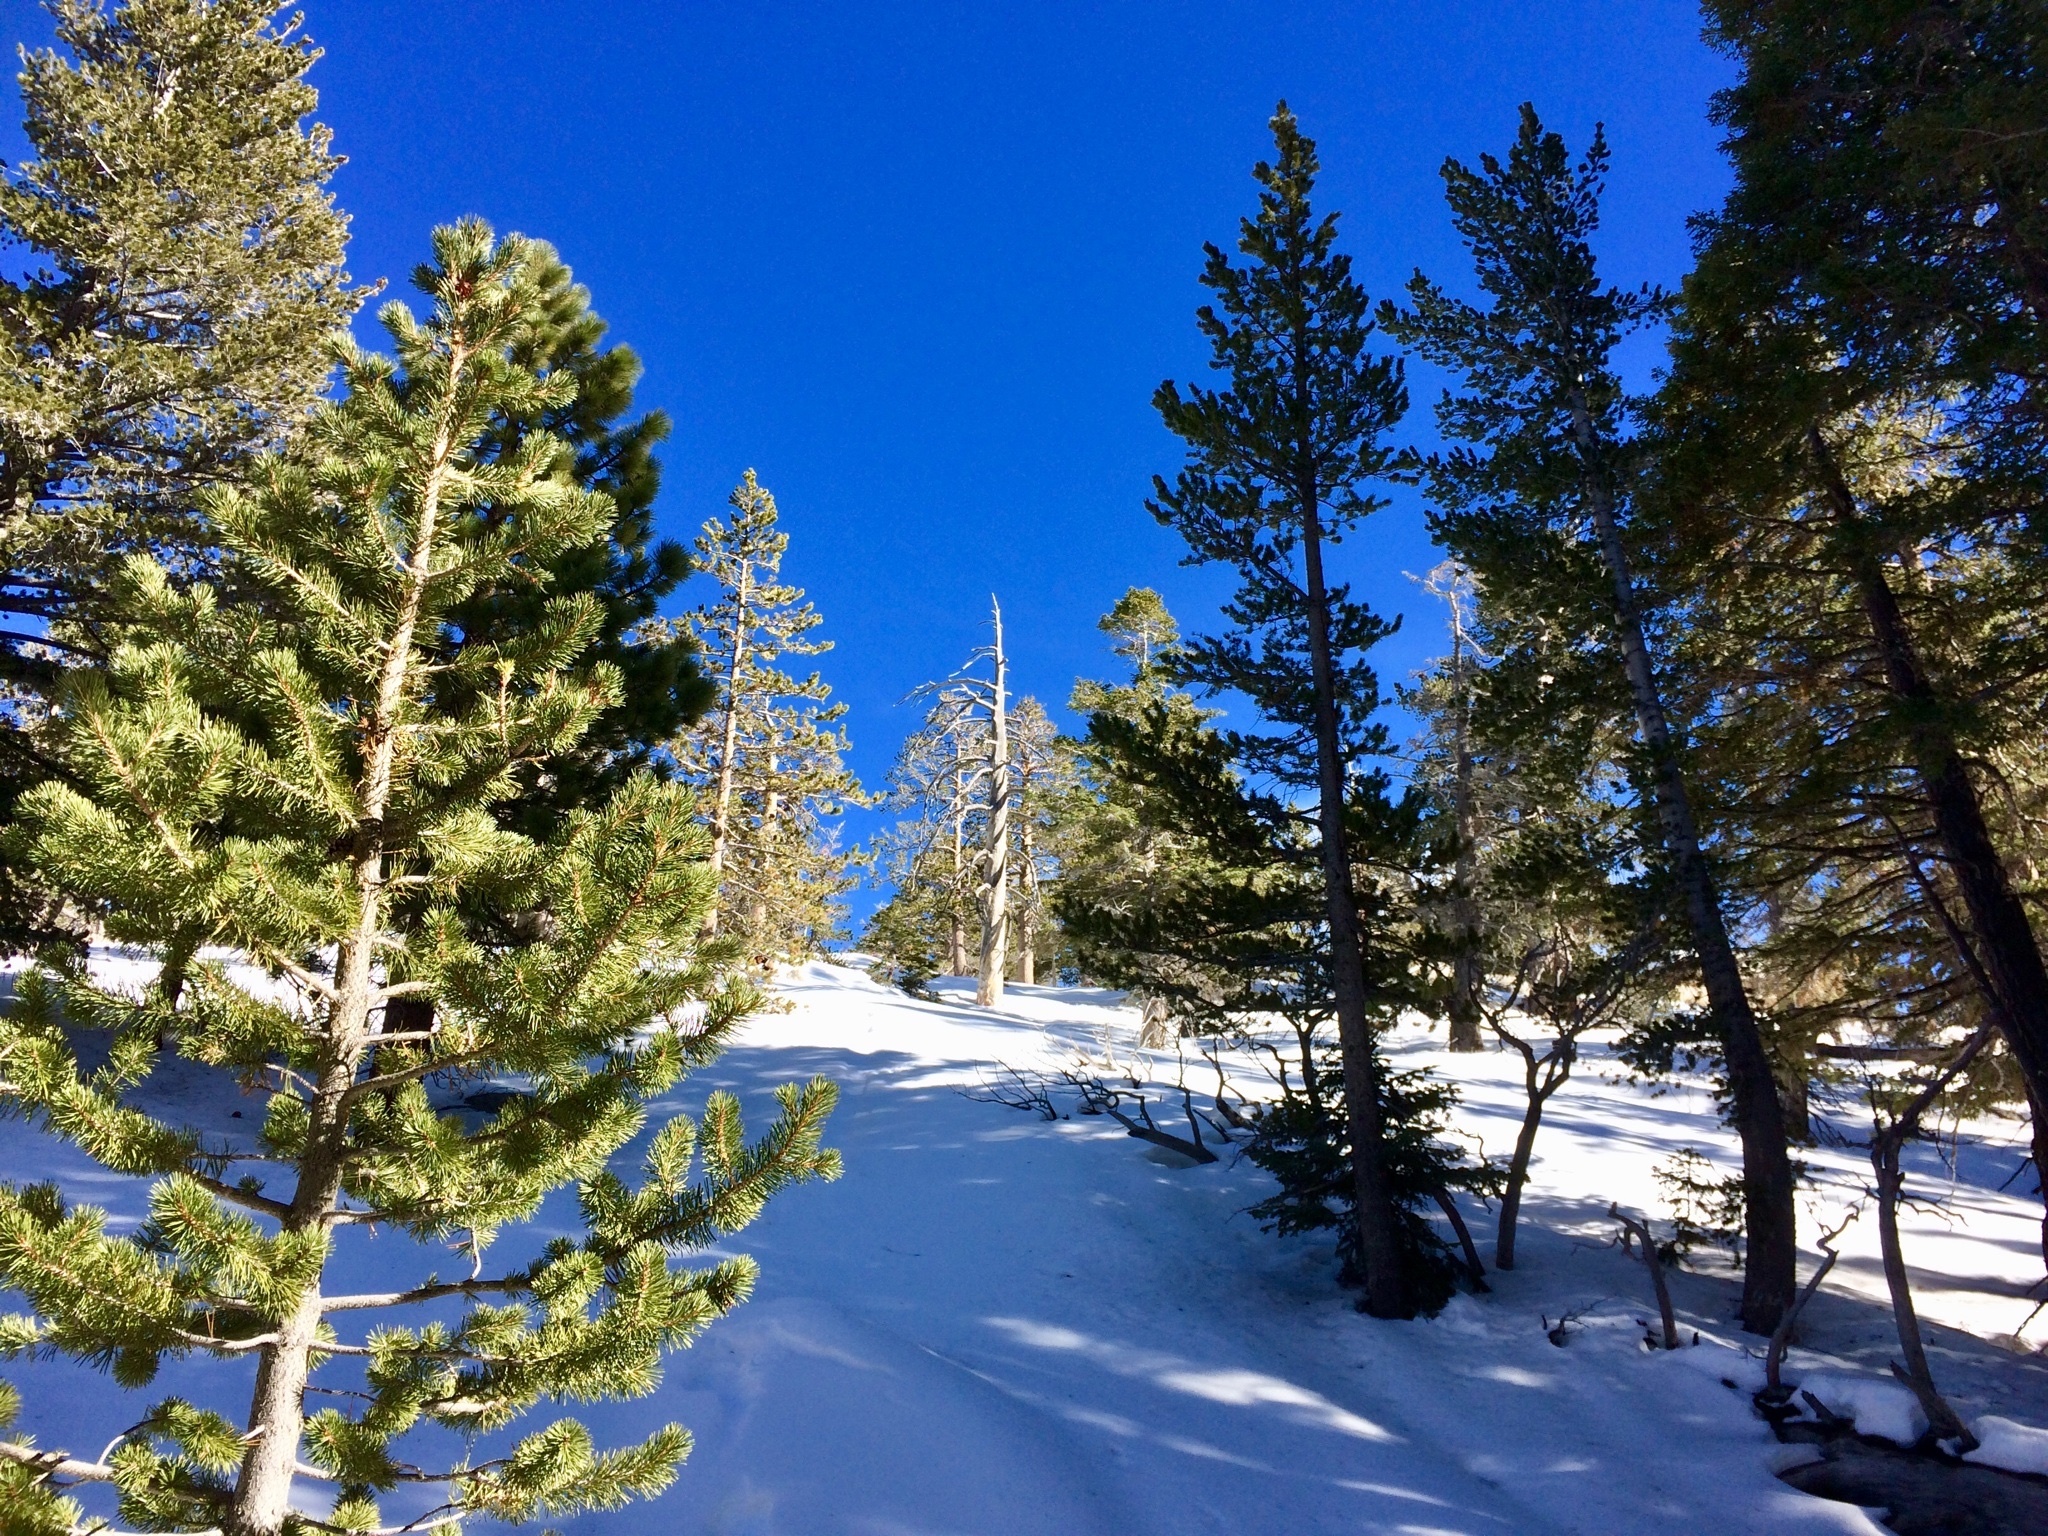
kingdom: Plantae
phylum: Tracheophyta
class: Pinopsida
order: Pinales
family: Pinaceae
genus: Pinus
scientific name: Pinus contorta
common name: Lodgepole pine
